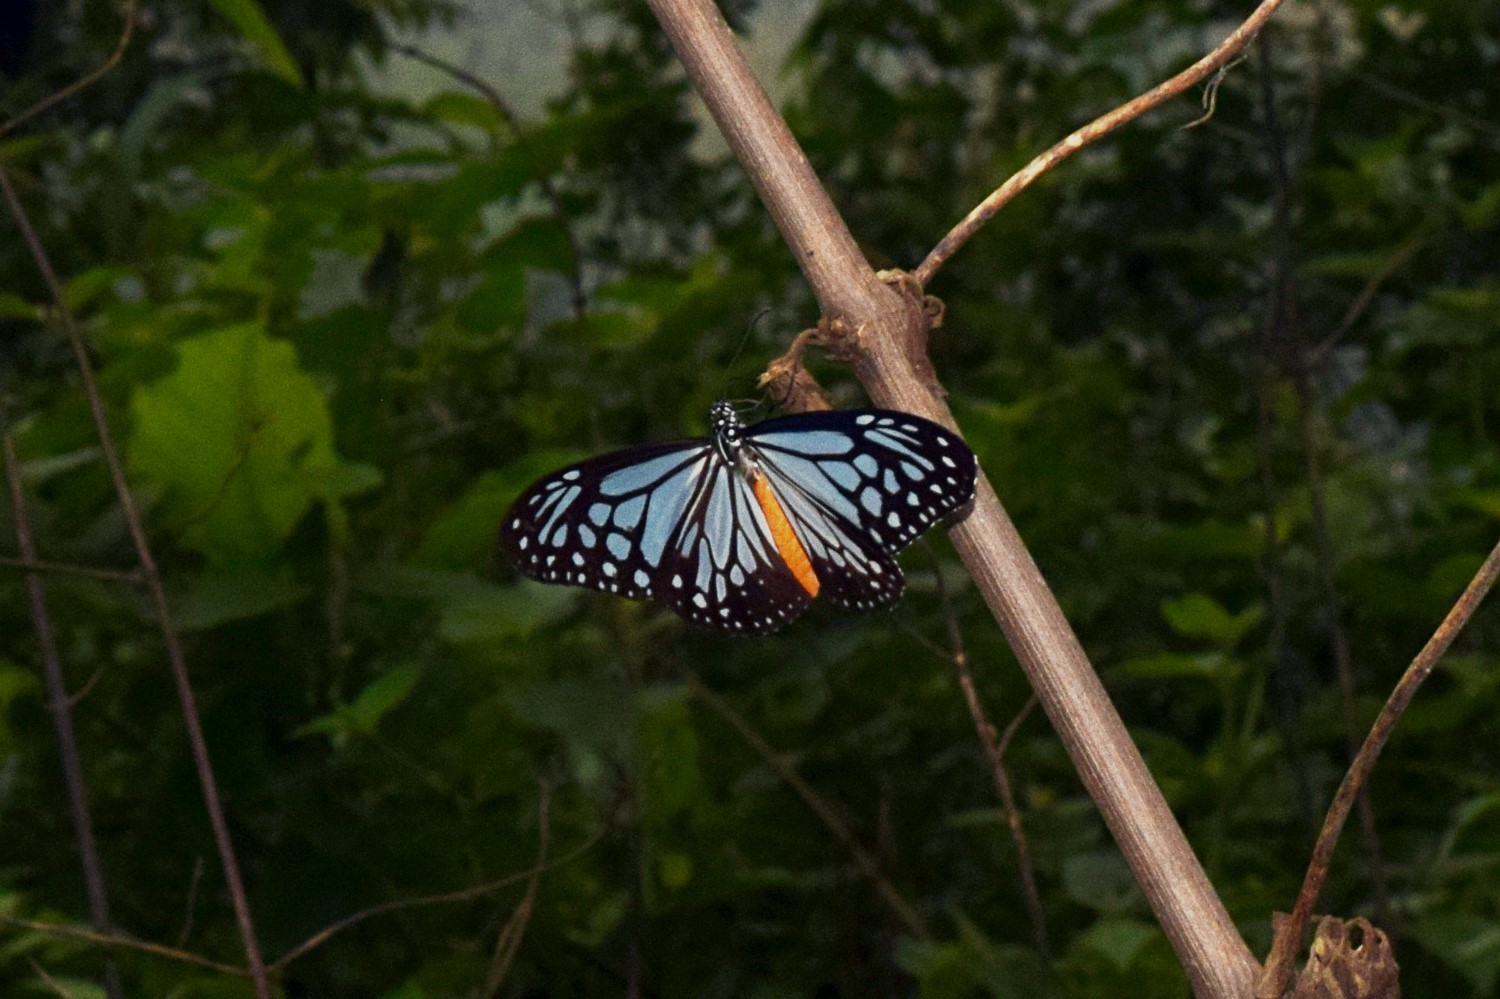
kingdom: Animalia
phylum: Arthropoda
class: Insecta
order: Lepidoptera
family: Nymphalidae
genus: Parantica
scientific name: Parantica melaneus
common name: Chocolate tiger
